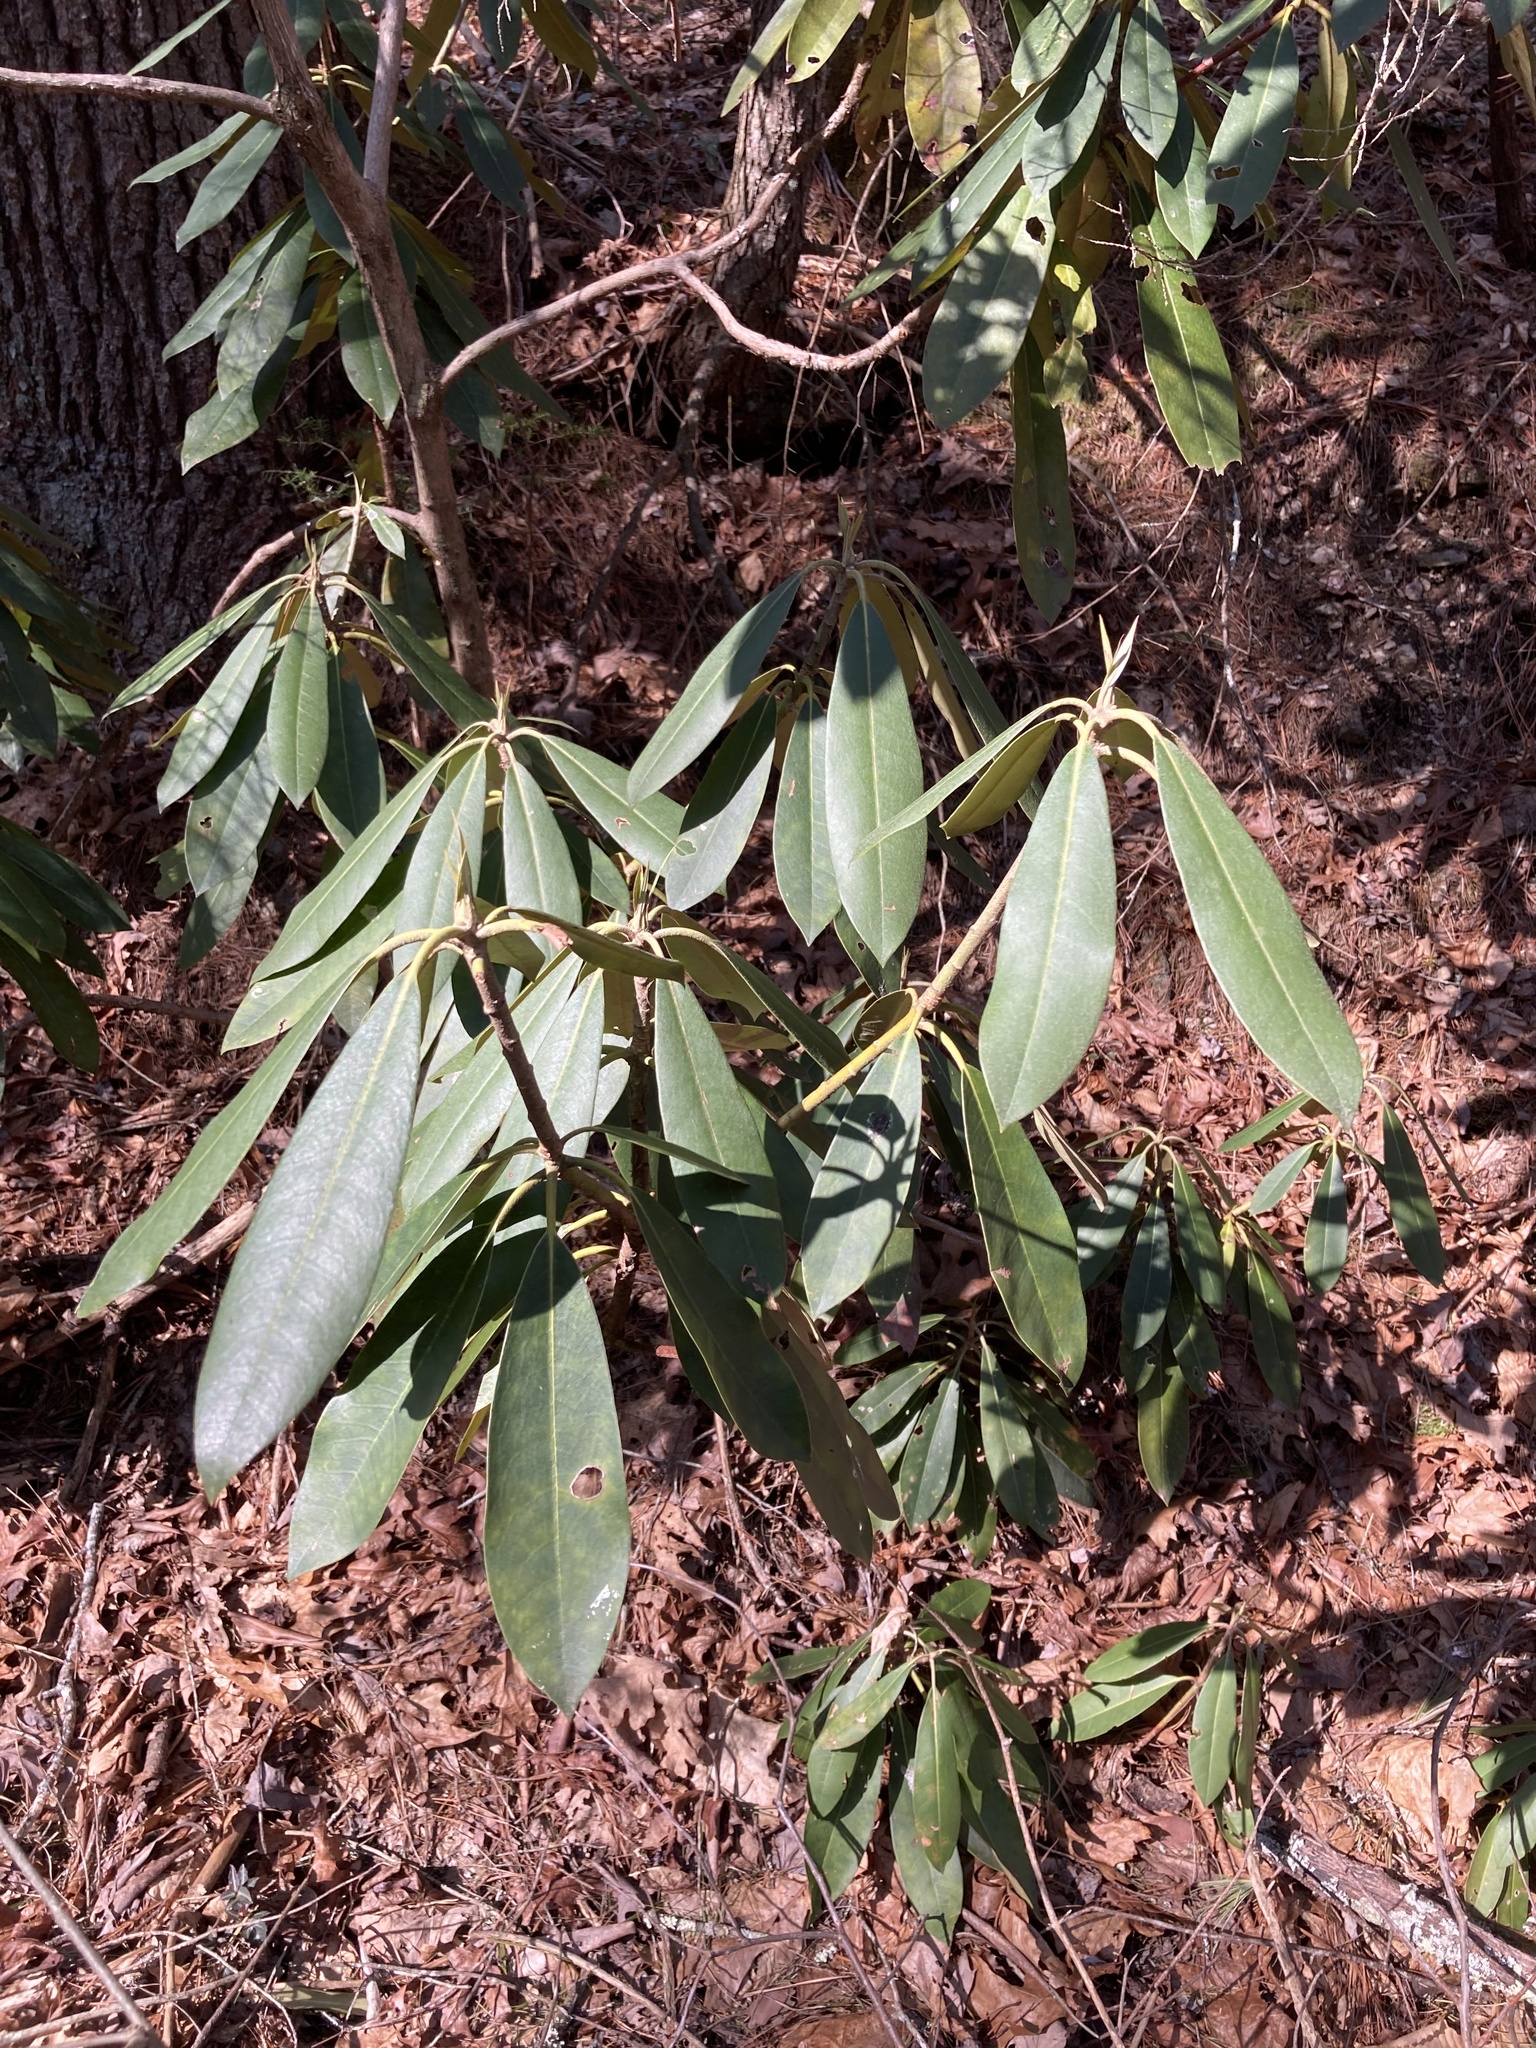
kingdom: Plantae
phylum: Tracheophyta
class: Magnoliopsida
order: Ericales
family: Ericaceae
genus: Rhododendron
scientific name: Rhododendron maximum
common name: Great rhododendron
